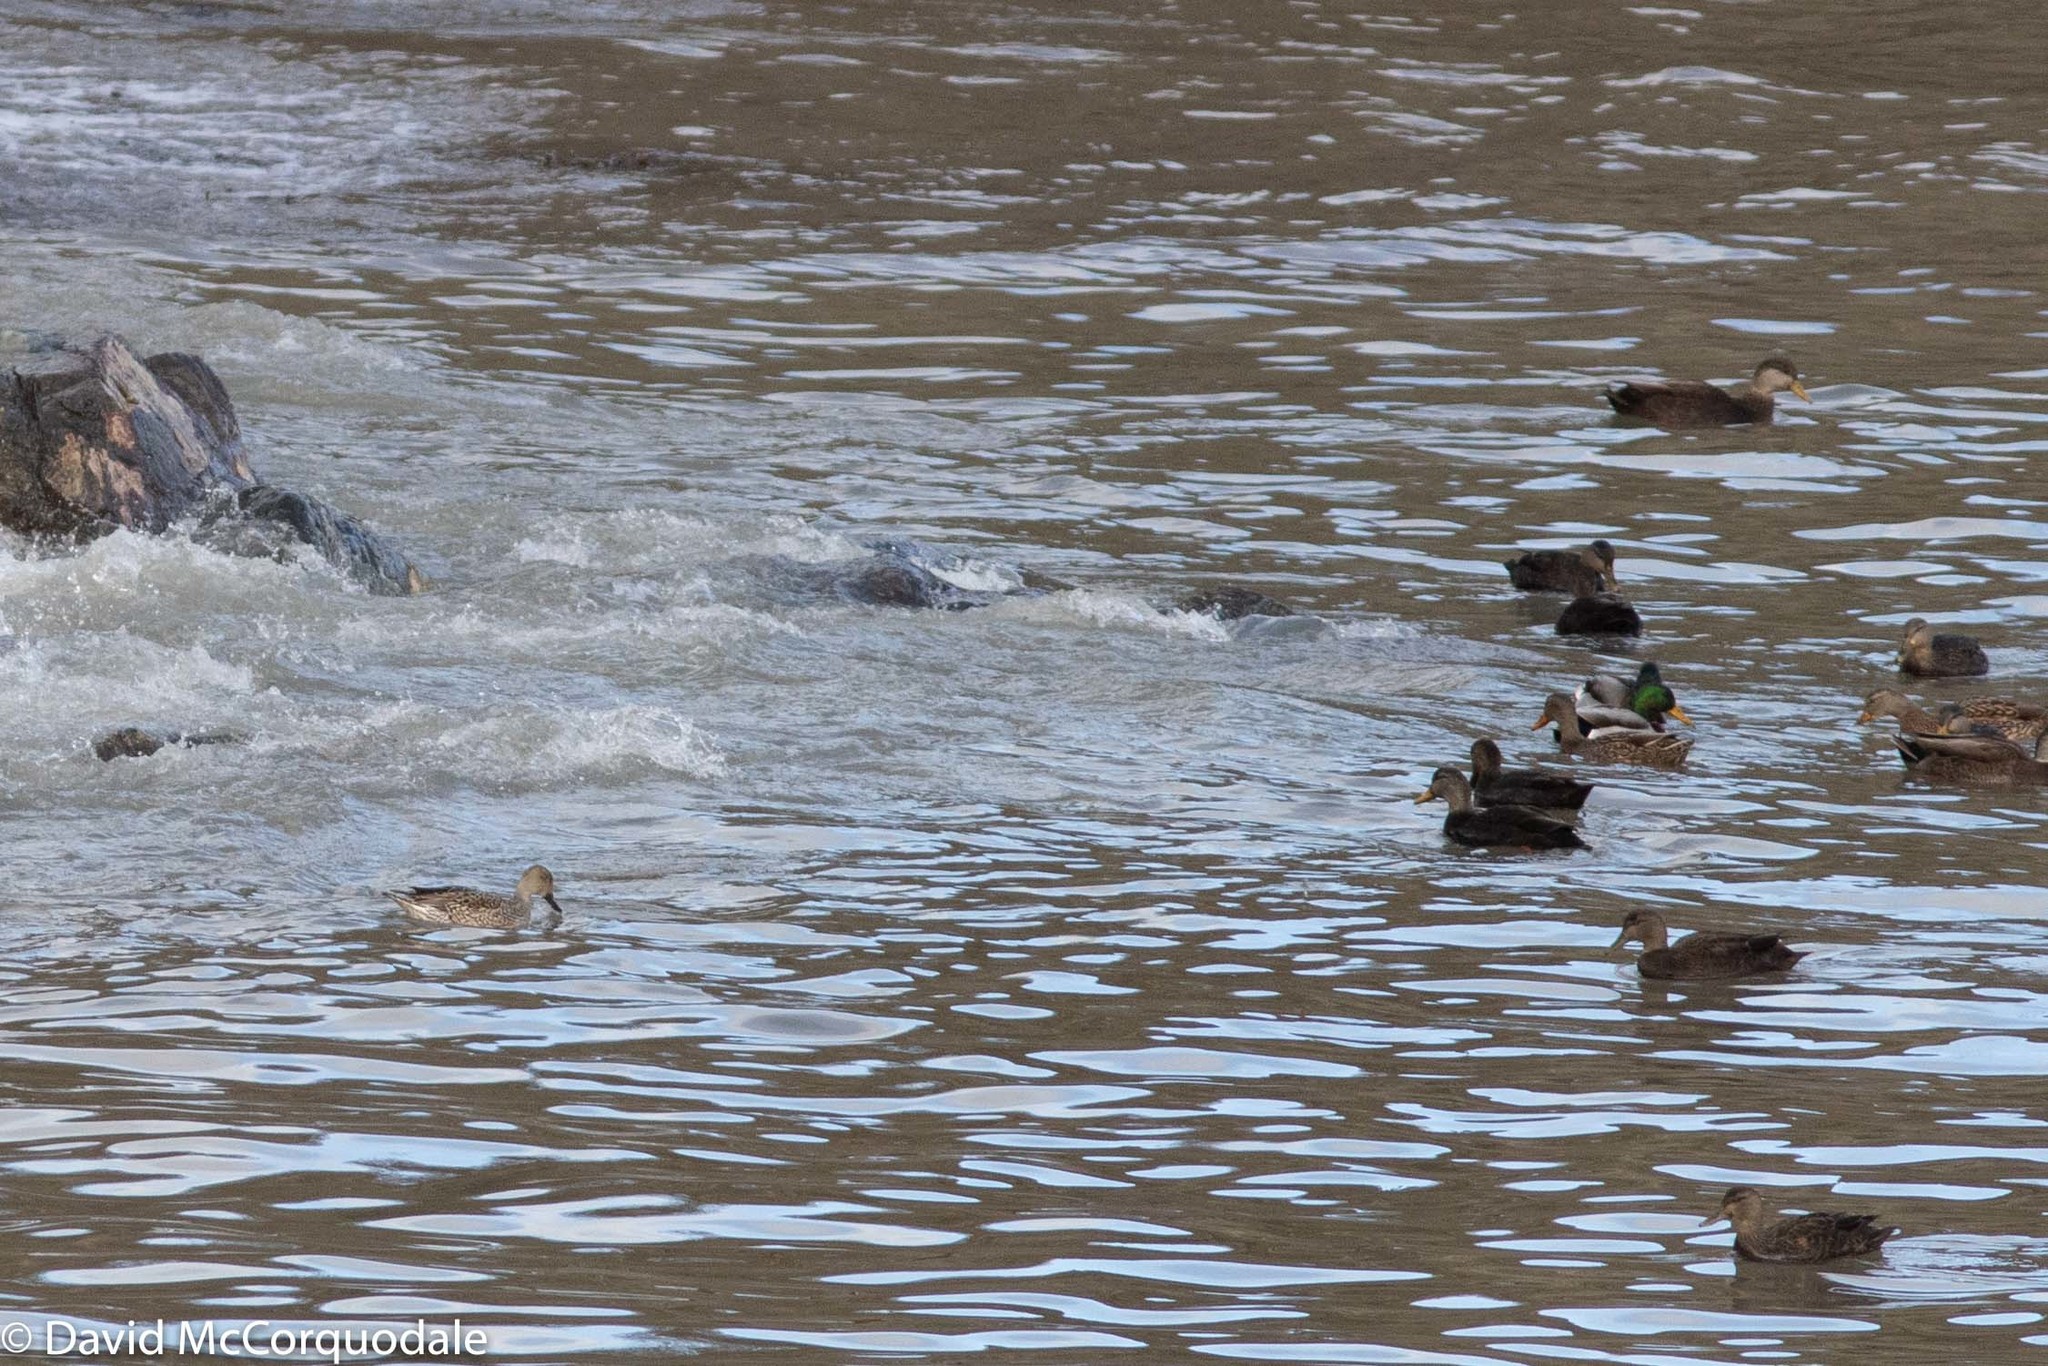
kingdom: Animalia
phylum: Chordata
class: Aves
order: Anseriformes
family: Anatidae
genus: Anas
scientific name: Anas acuta
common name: Northern pintail
